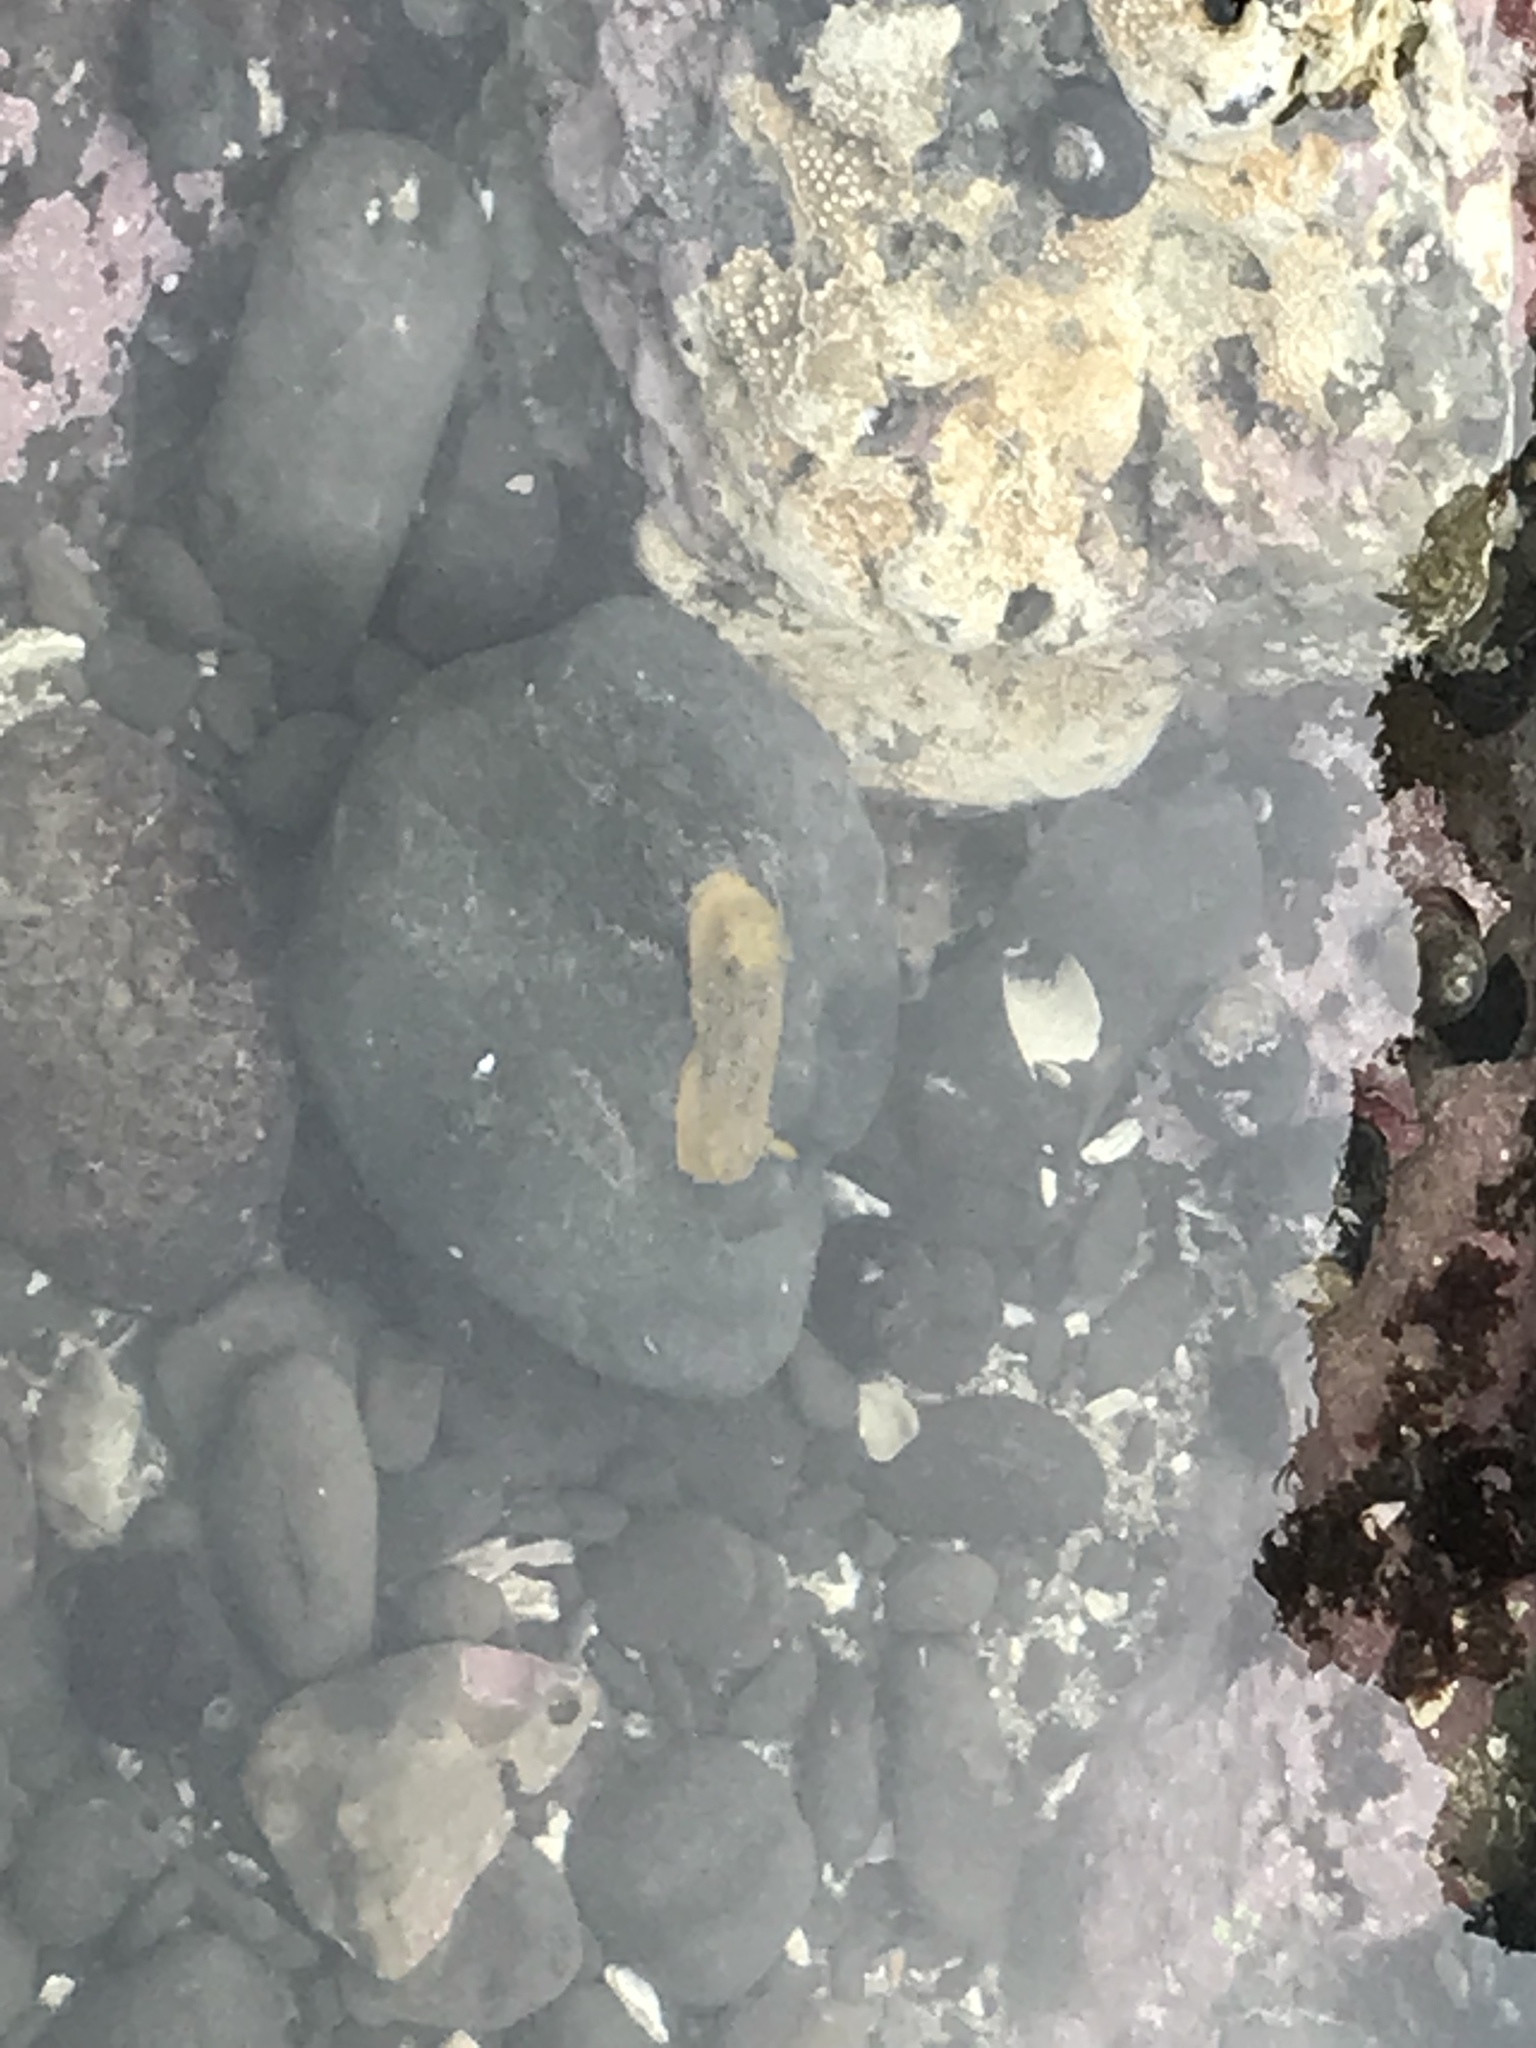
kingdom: Animalia
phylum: Mollusca
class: Gastropoda
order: Nudibranchia
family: Dorididae
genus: Doris
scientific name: Doris montereyensis
